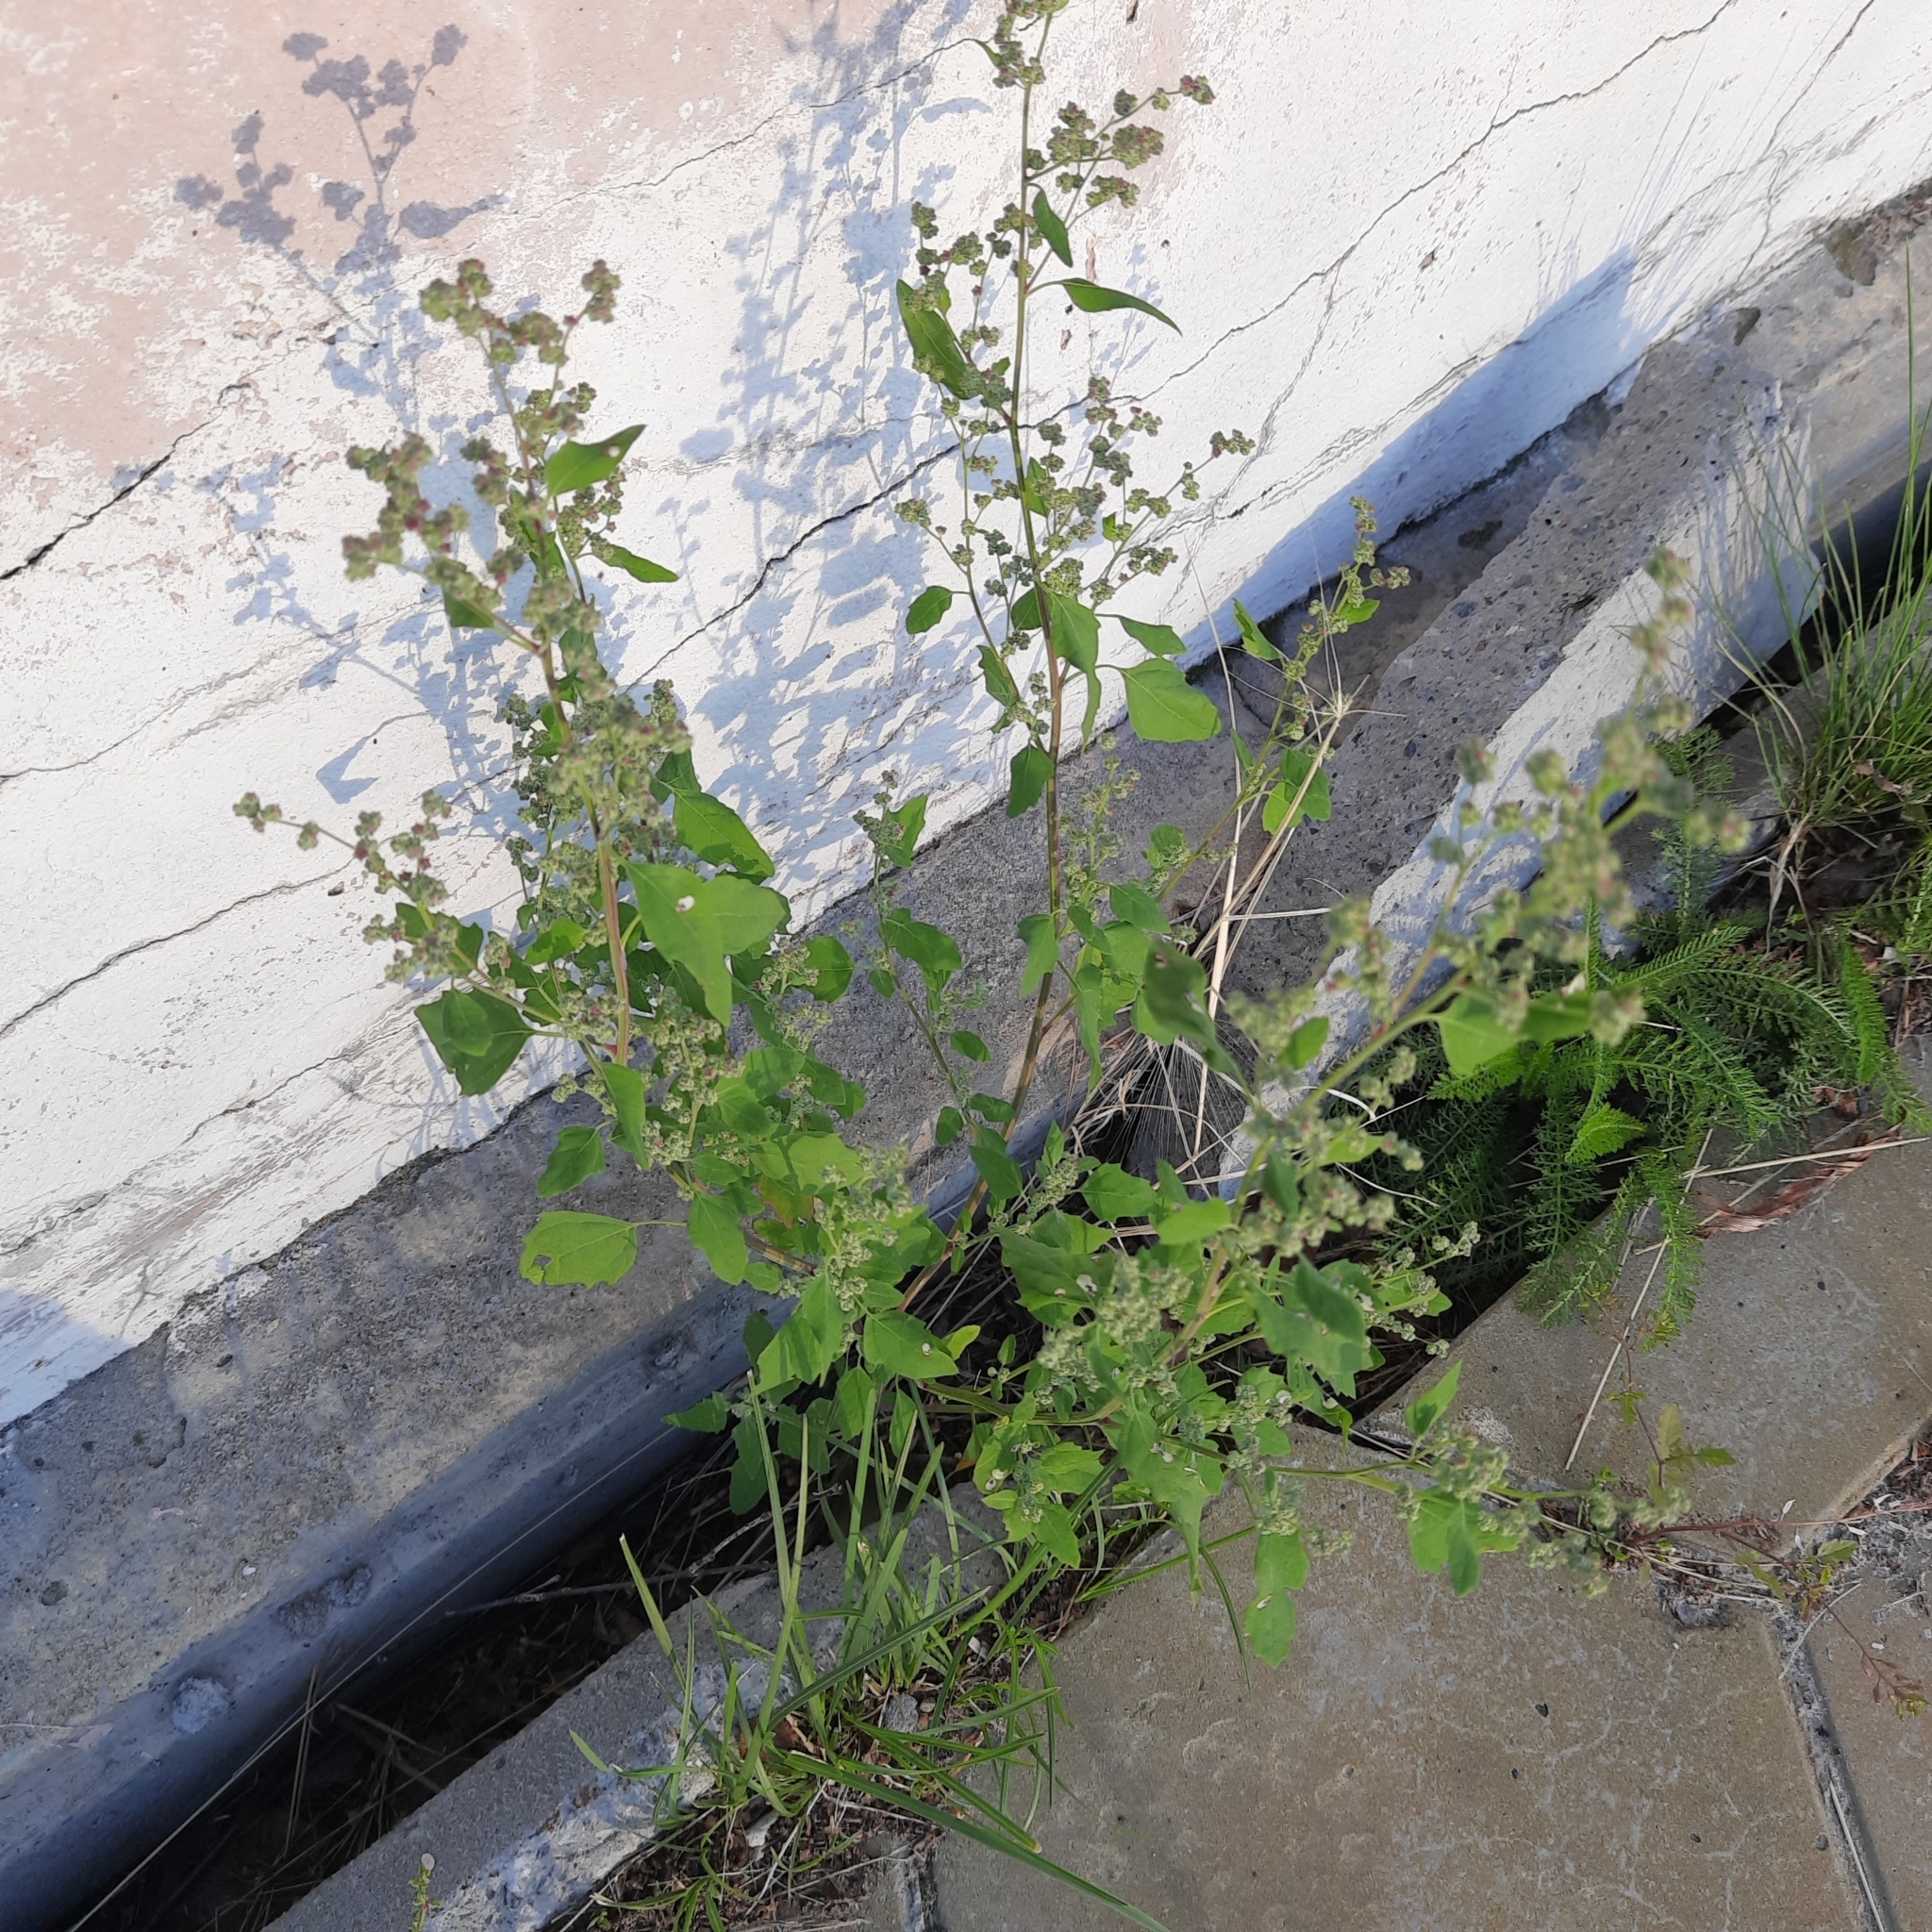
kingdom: Plantae
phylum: Tracheophyta
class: Magnoliopsida
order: Caryophyllales
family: Amaranthaceae
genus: Chenopodium
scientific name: Chenopodium album
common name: Fat-hen
